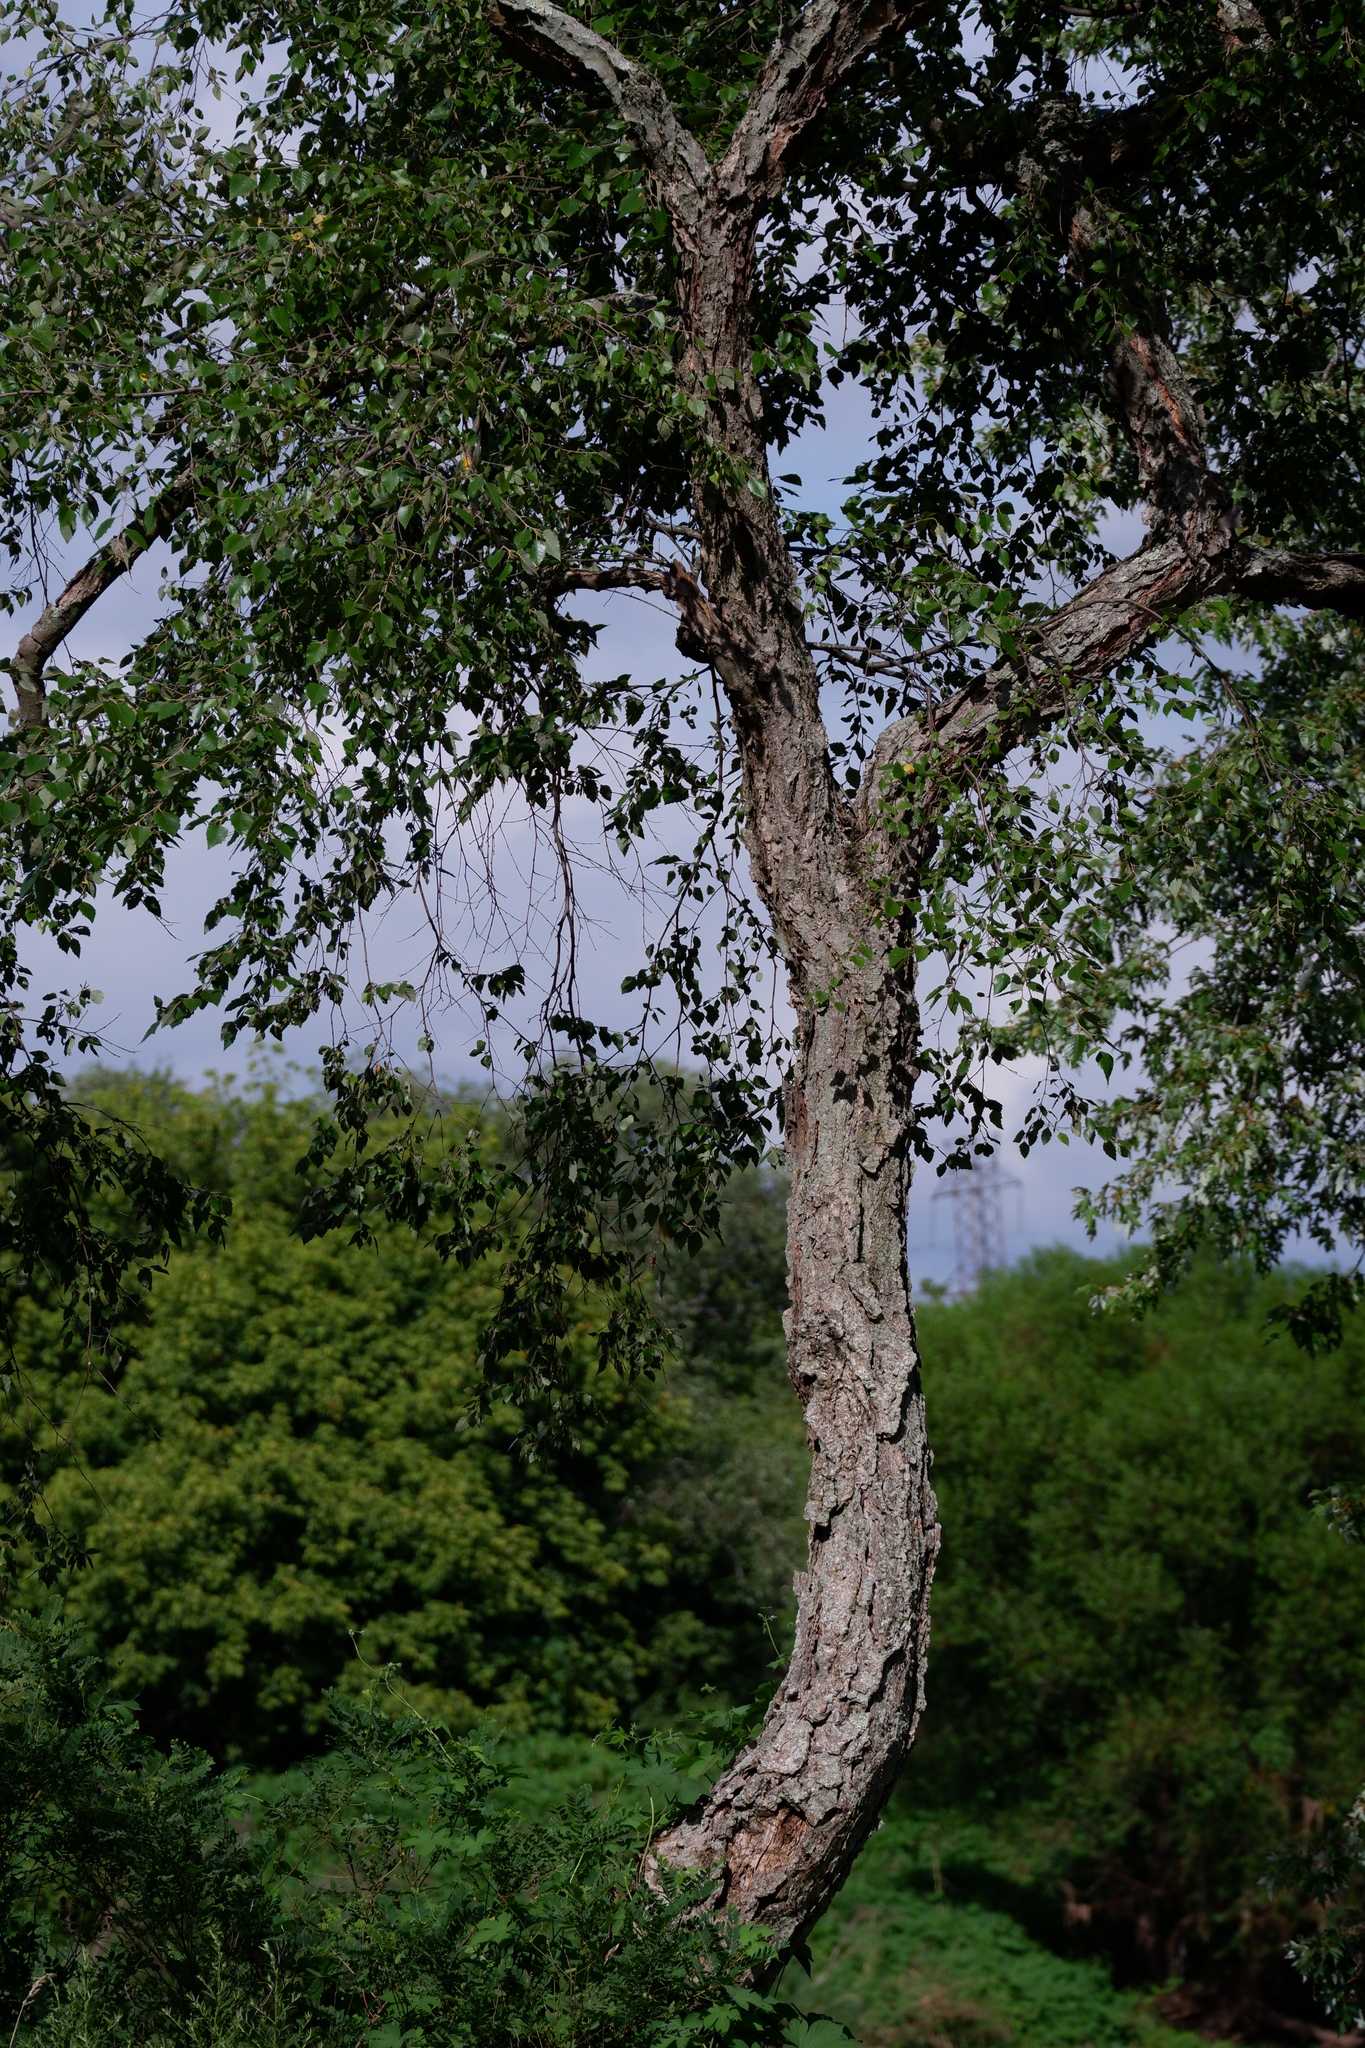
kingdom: Plantae
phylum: Tracheophyta
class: Magnoliopsida
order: Fagales
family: Betulaceae
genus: Betula
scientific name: Betula nigra
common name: Black birch
